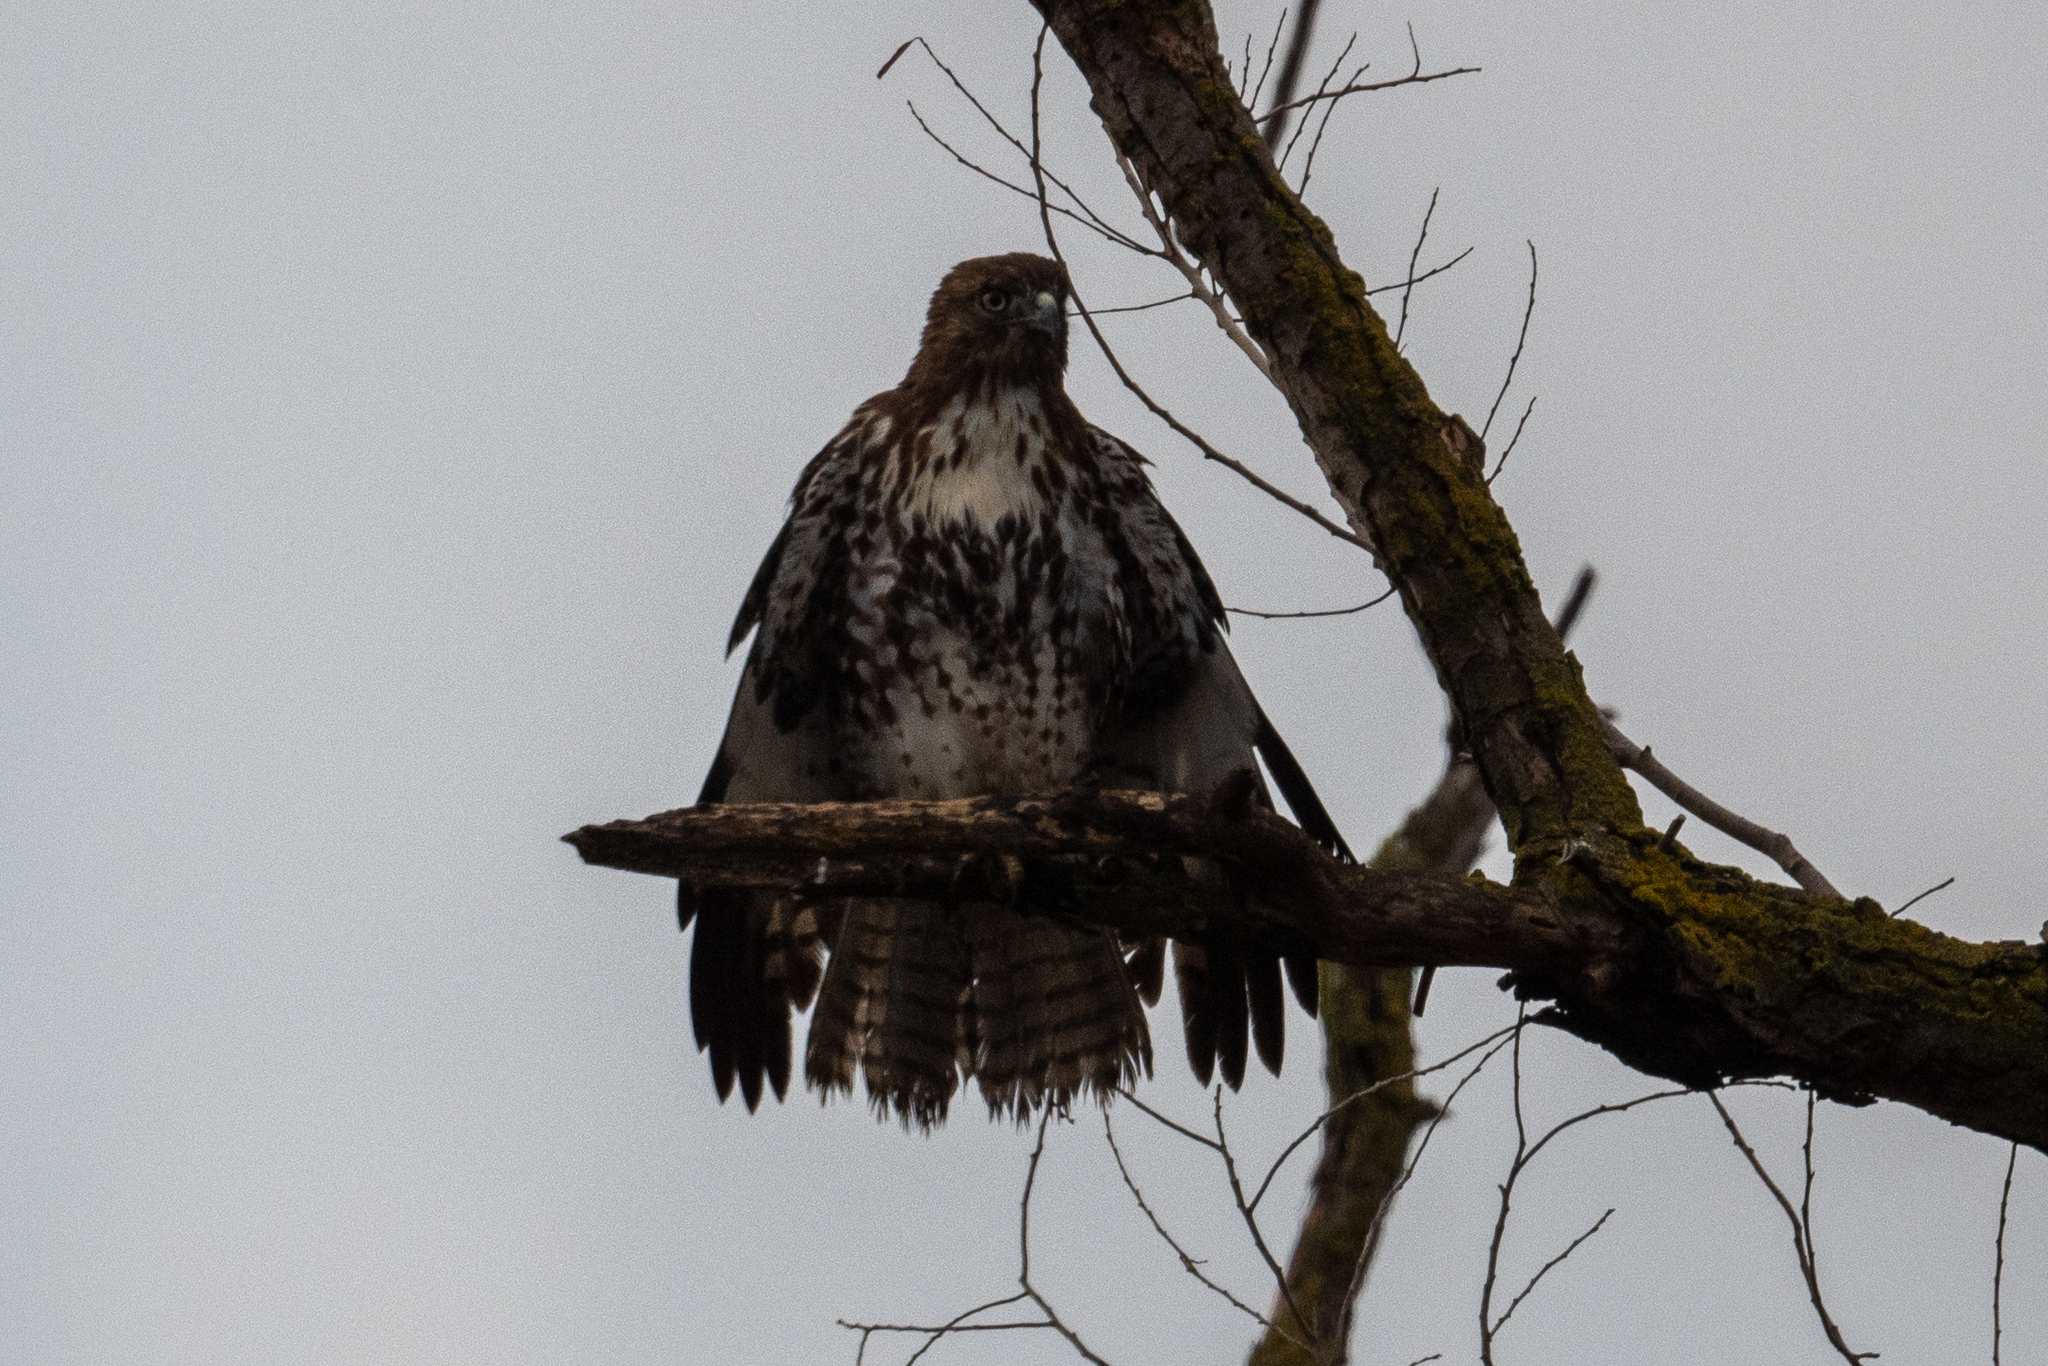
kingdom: Animalia
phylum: Chordata
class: Aves
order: Accipitriformes
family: Accipitridae
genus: Buteo
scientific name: Buteo jamaicensis
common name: Red-tailed hawk
